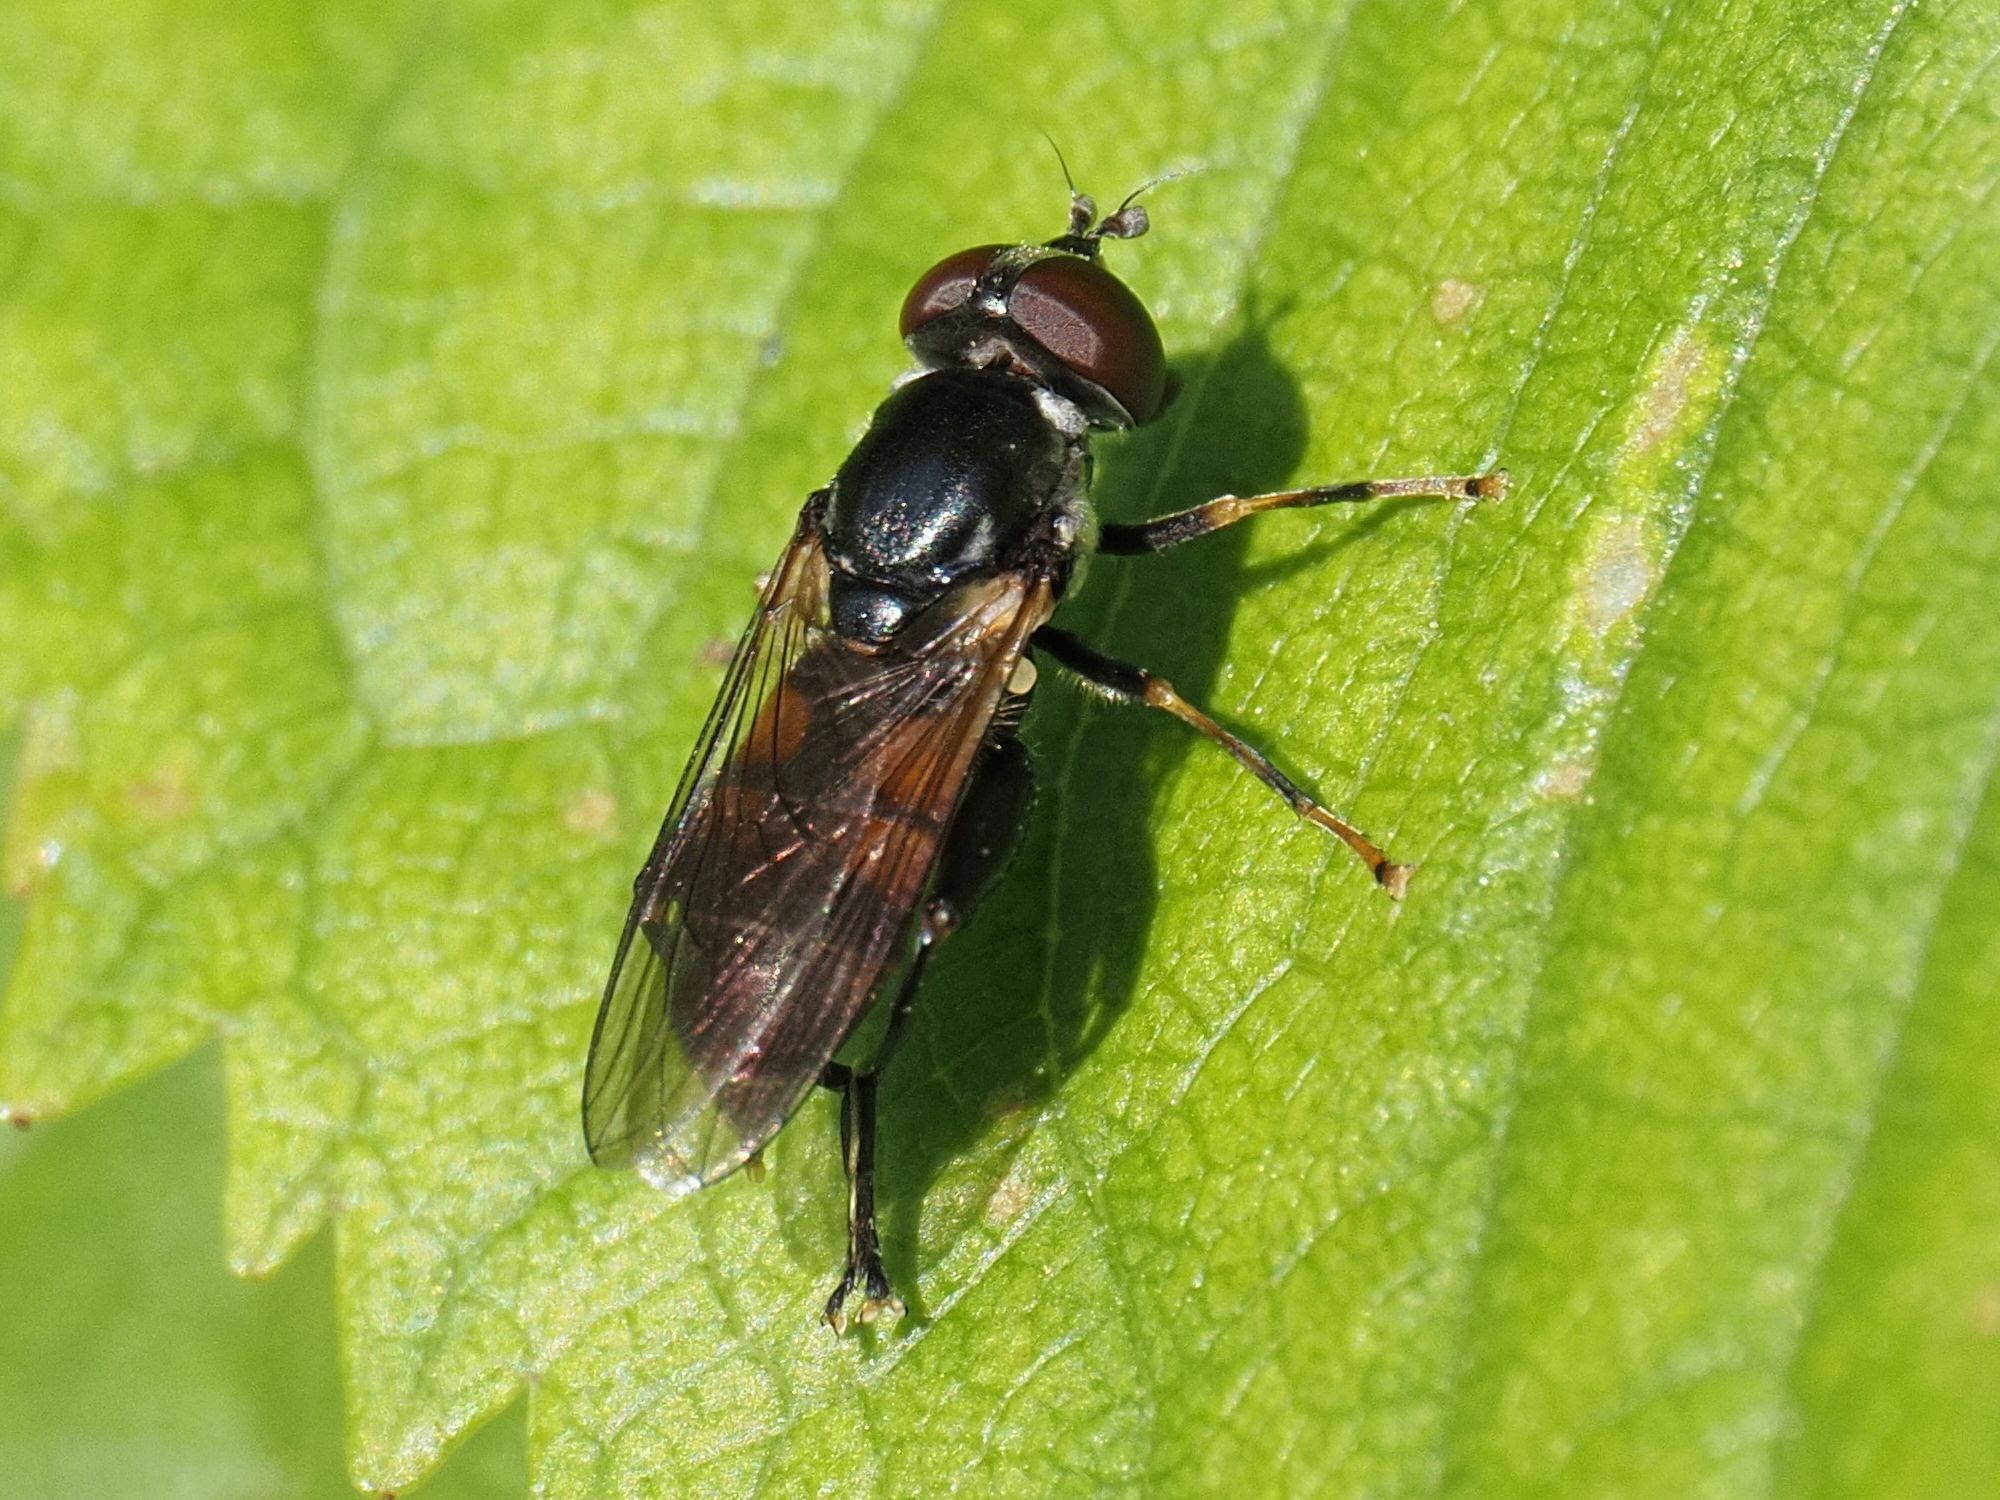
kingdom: Animalia
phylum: Arthropoda
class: Insecta
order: Diptera
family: Syrphidae
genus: Tropidia
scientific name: Tropidia scita
